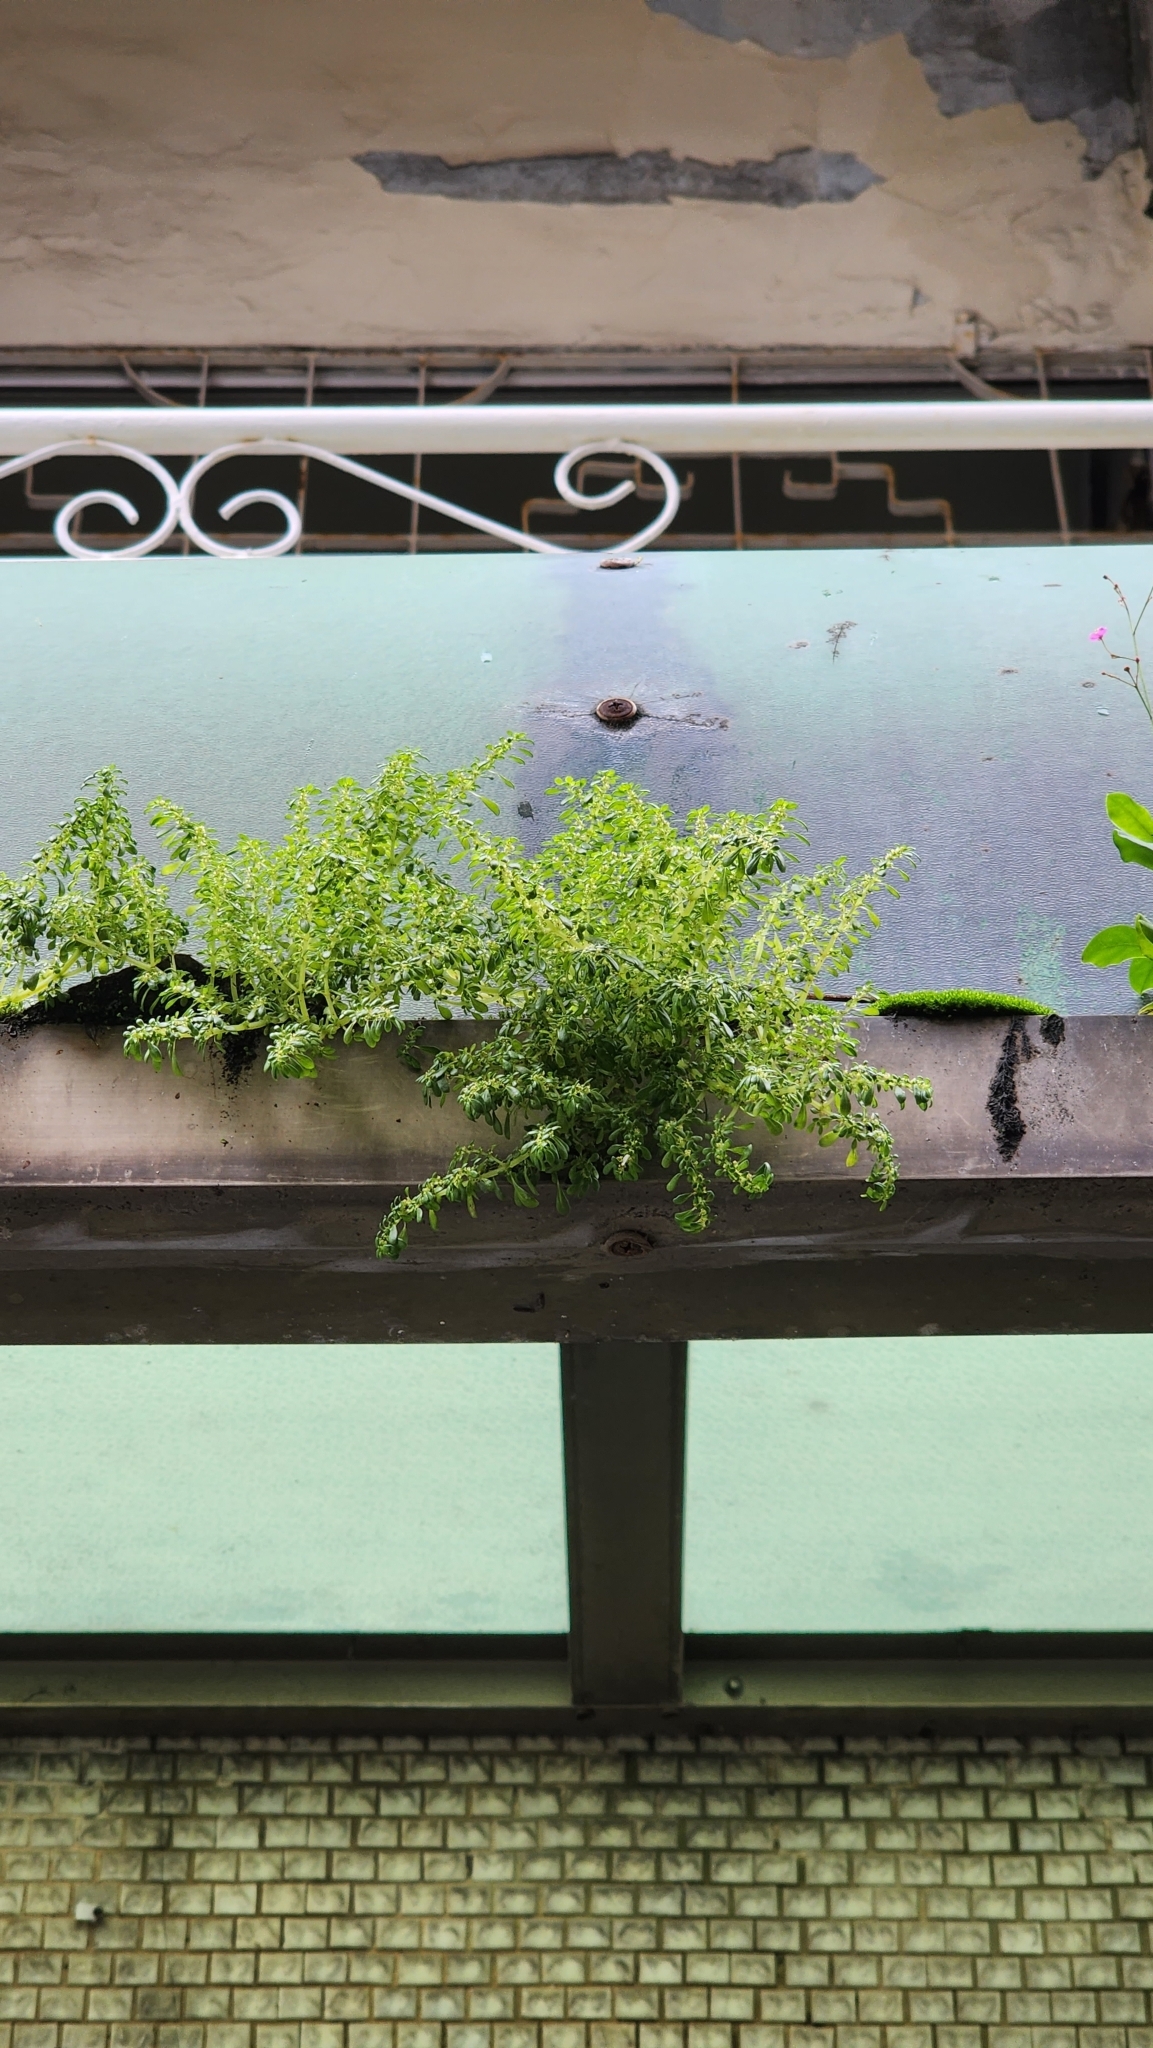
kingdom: Plantae
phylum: Tracheophyta
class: Magnoliopsida
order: Rosales
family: Urticaceae
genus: Pilea
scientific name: Pilea microphylla
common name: Artillery-plant
